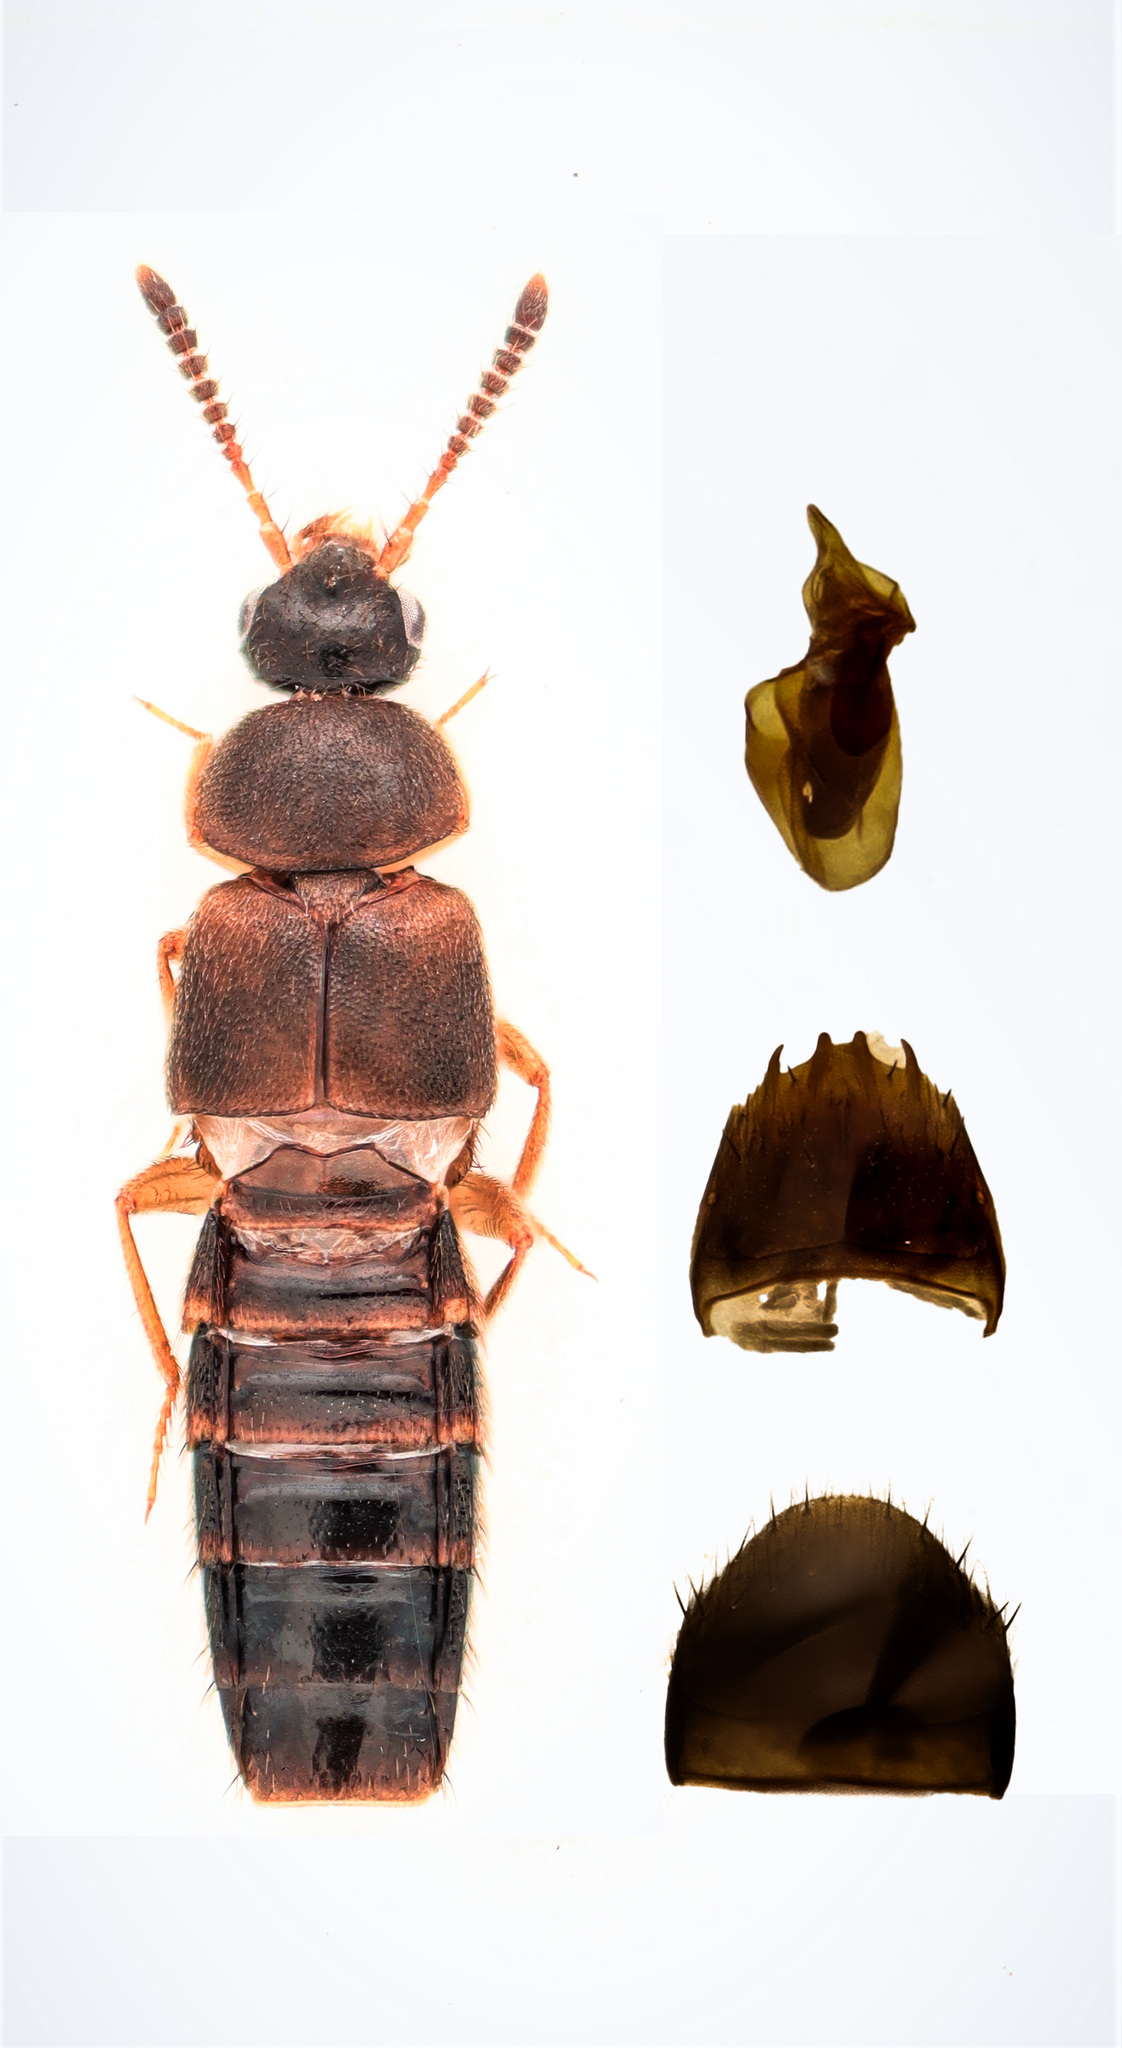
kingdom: Animalia
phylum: Arthropoda
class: Insecta
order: Coleoptera
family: Staphylinidae
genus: Thamiaraea
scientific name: Thamiaraea brittoni
